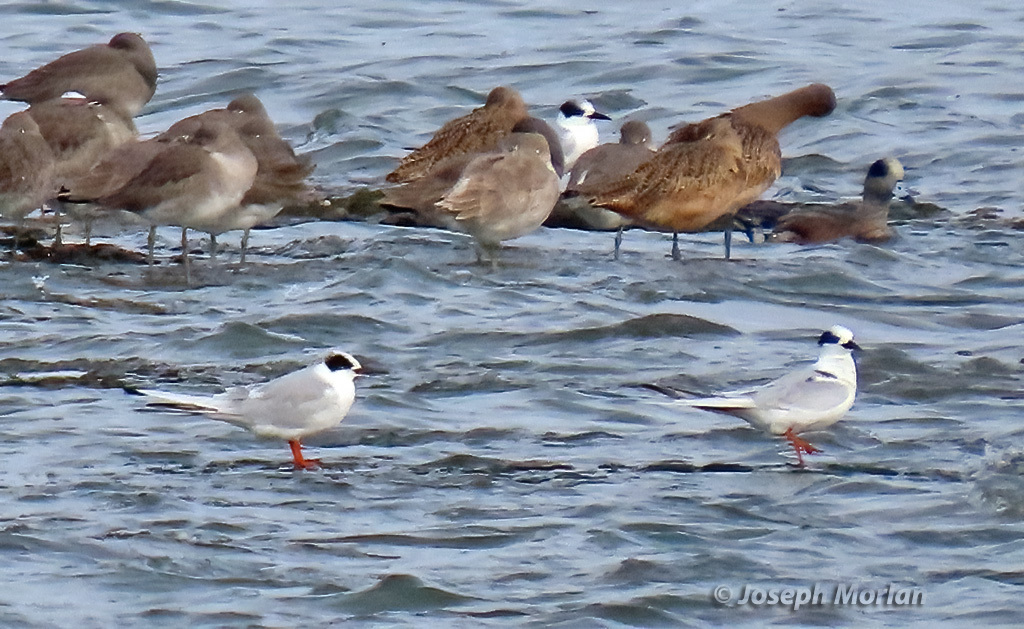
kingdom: Animalia
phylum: Chordata
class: Aves
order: Charadriiformes
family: Laridae
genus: Sterna
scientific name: Sterna forsteri
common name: Forster's tern
